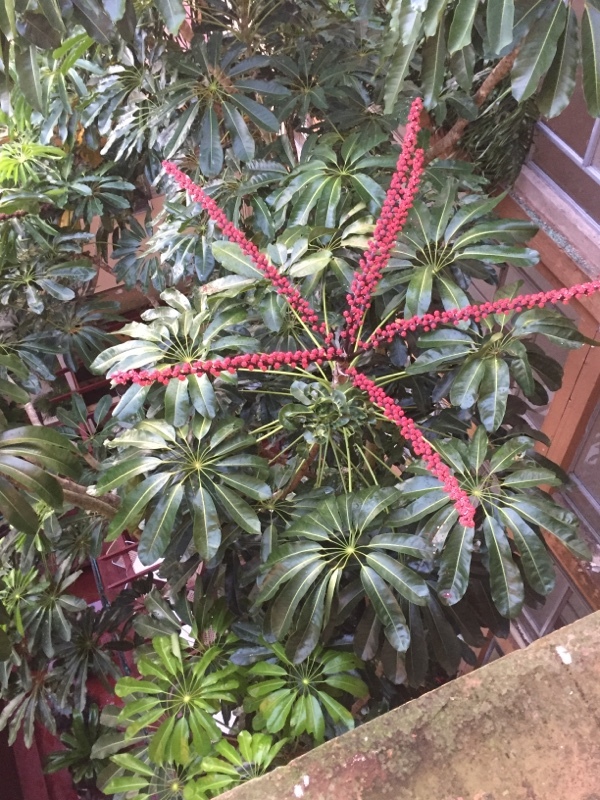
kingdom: Plantae
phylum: Tracheophyta
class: Magnoliopsida
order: Apiales
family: Araliaceae
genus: Heptapleurum
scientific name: Heptapleurum actinophyllum
